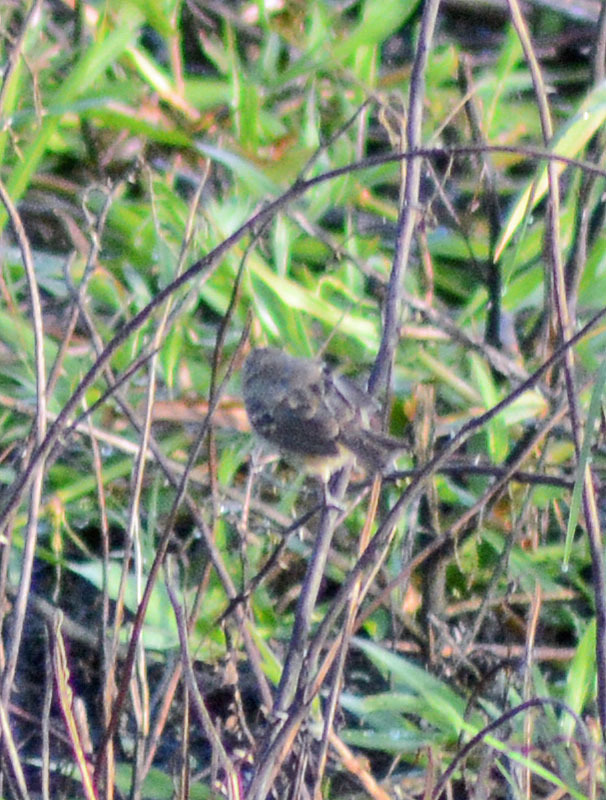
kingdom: Animalia
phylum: Chordata
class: Aves
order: Passeriformes
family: Thraupidae
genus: Volatinia
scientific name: Volatinia jacarina
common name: Blue-black grassquit
